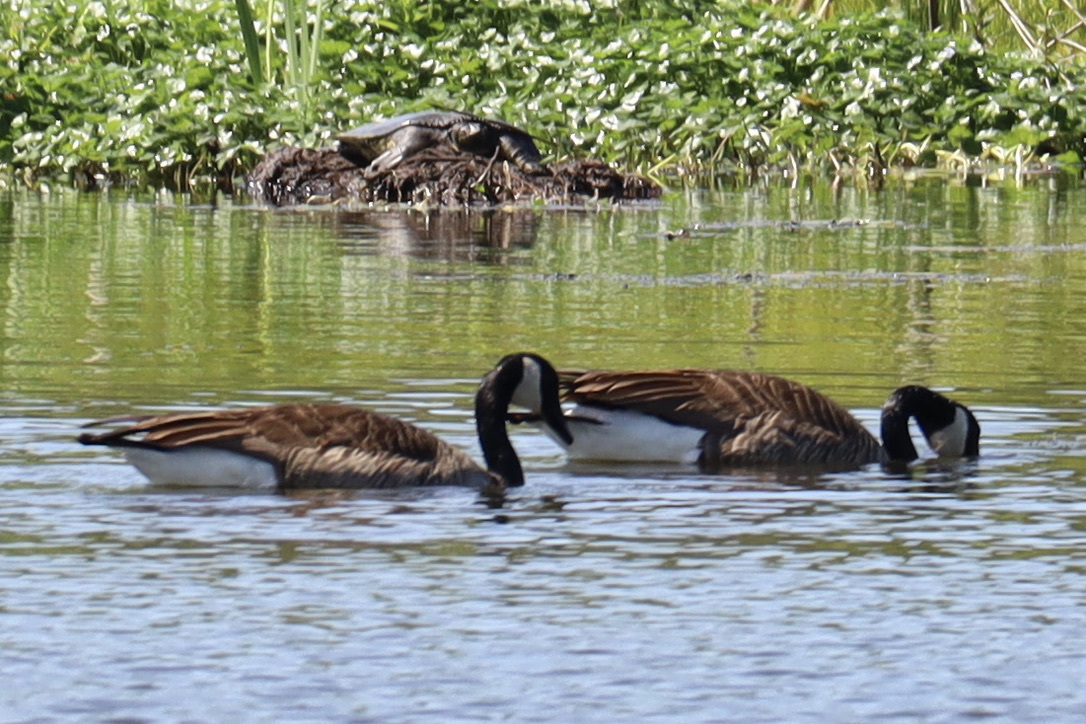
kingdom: Animalia
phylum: Chordata
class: Aves
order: Anseriformes
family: Anatidae
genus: Branta
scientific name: Branta canadensis
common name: Canada goose
